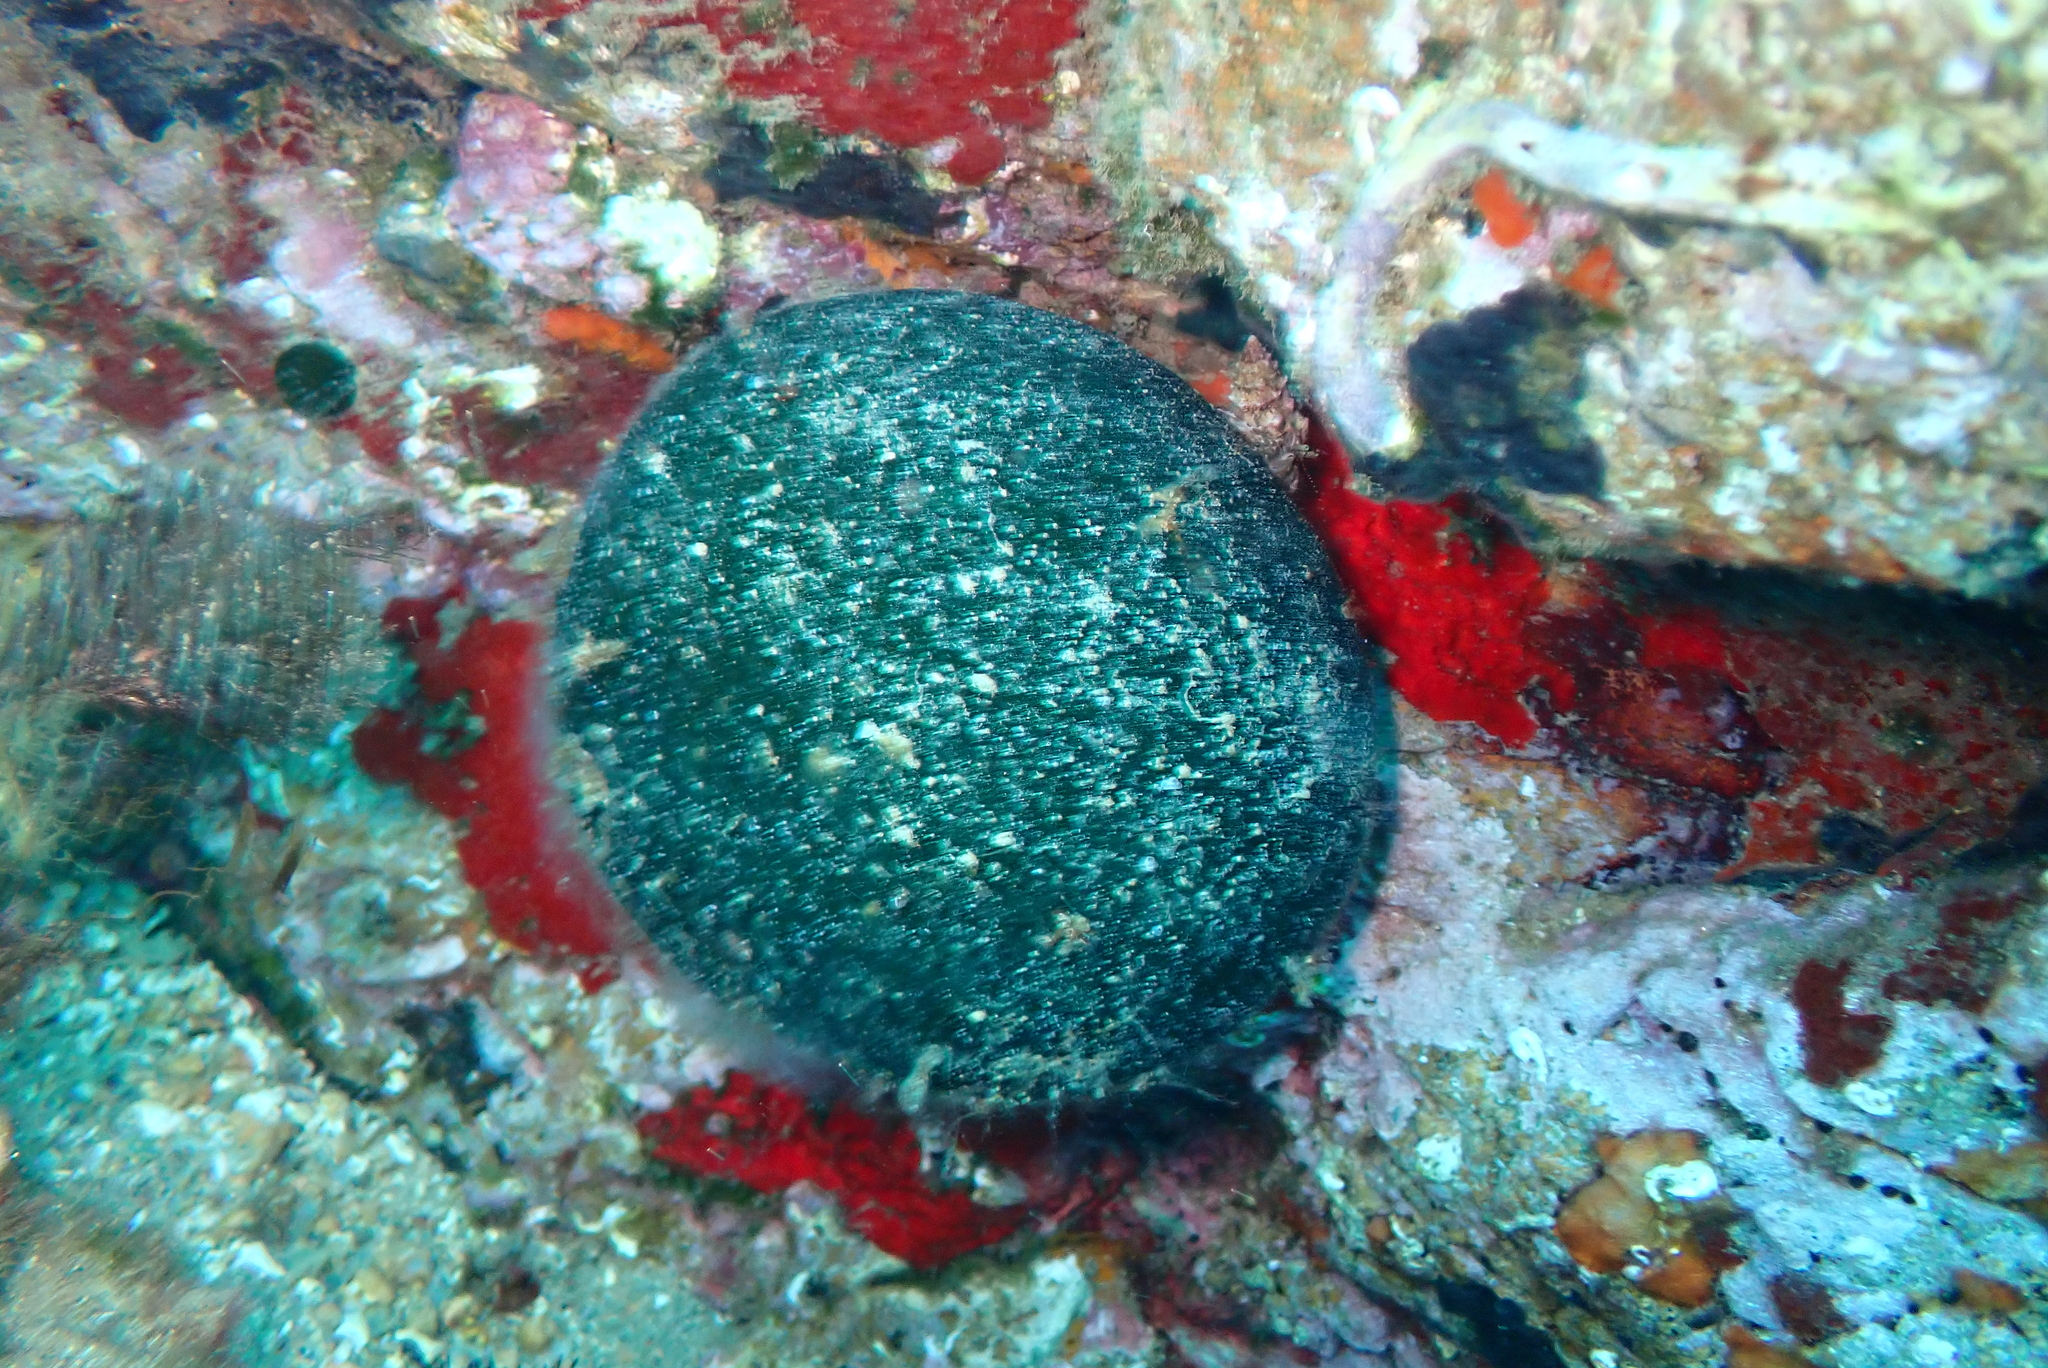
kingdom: Plantae
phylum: Chlorophyta
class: Ulvophyceae
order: Bryopsidales
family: Codiaceae
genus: Codium
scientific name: Codium bursa
